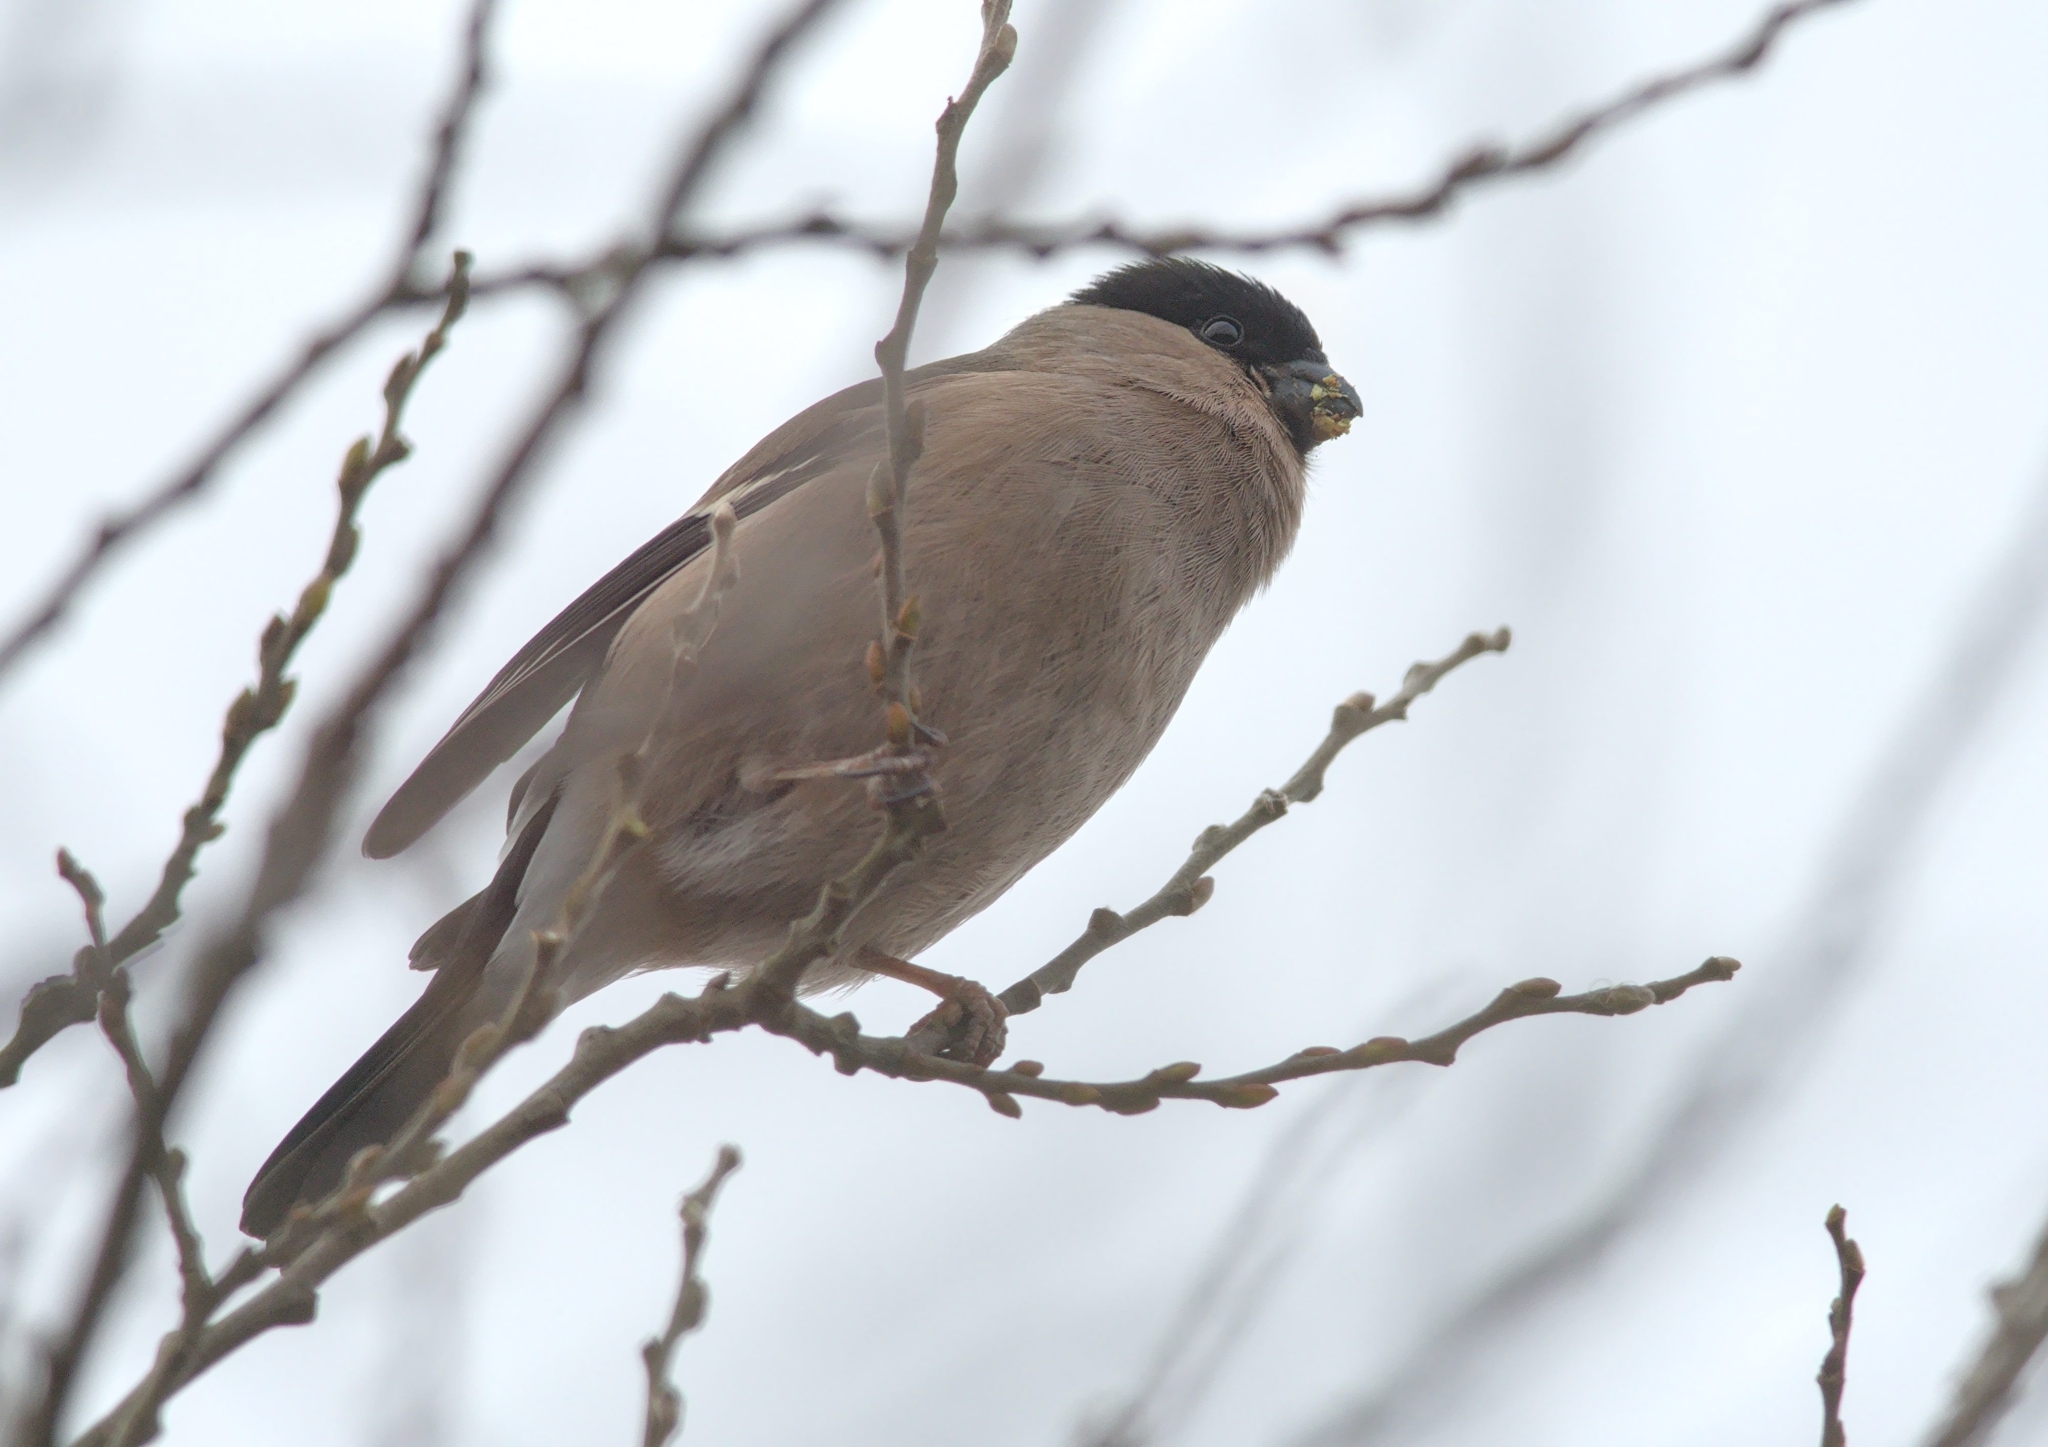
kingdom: Animalia
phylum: Chordata
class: Aves
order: Passeriformes
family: Fringillidae
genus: Pyrrhula
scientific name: Pyrrhula pyrrhula
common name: Eurasian bullfinch
